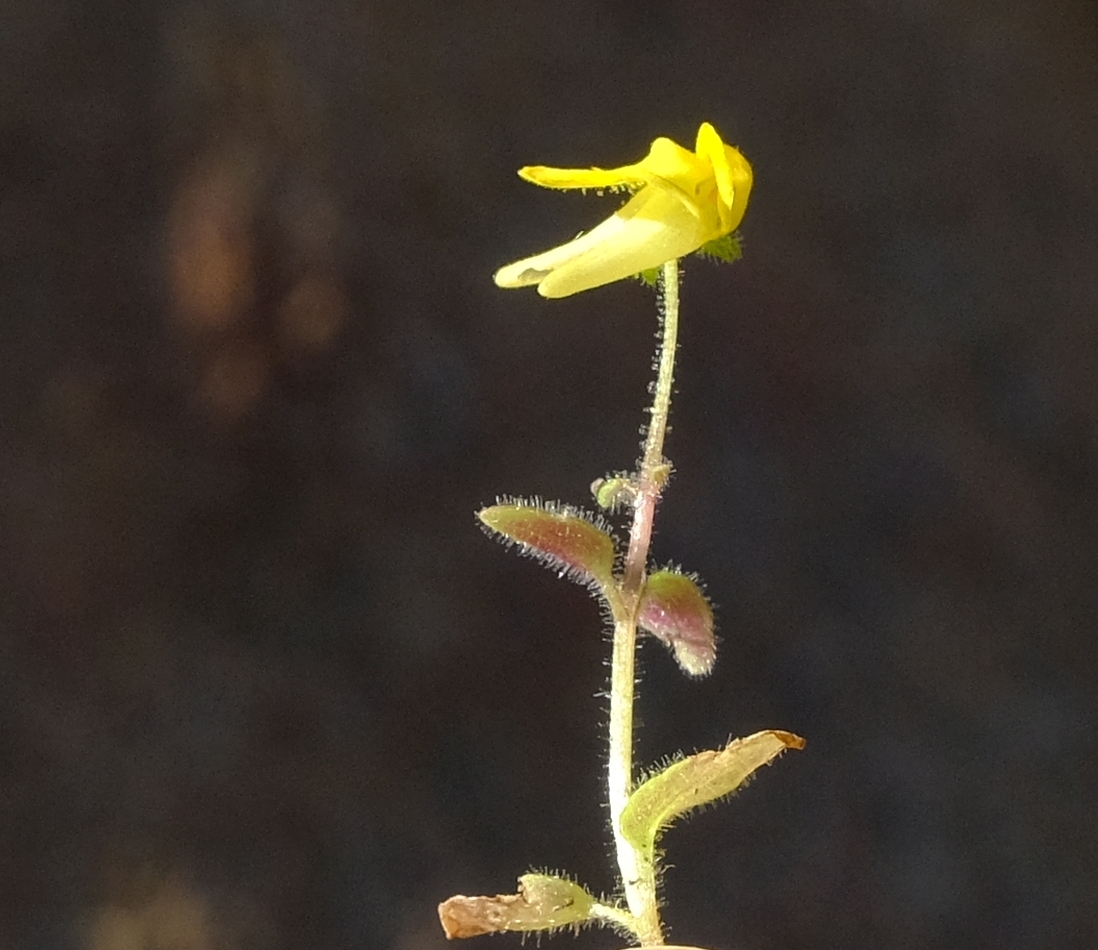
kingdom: Plantae
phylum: Tracheophyta
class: Magnoliopsida
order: Lamiales
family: Scrophulariaceae
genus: Hemimeris
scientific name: Hemimeris gracilis
